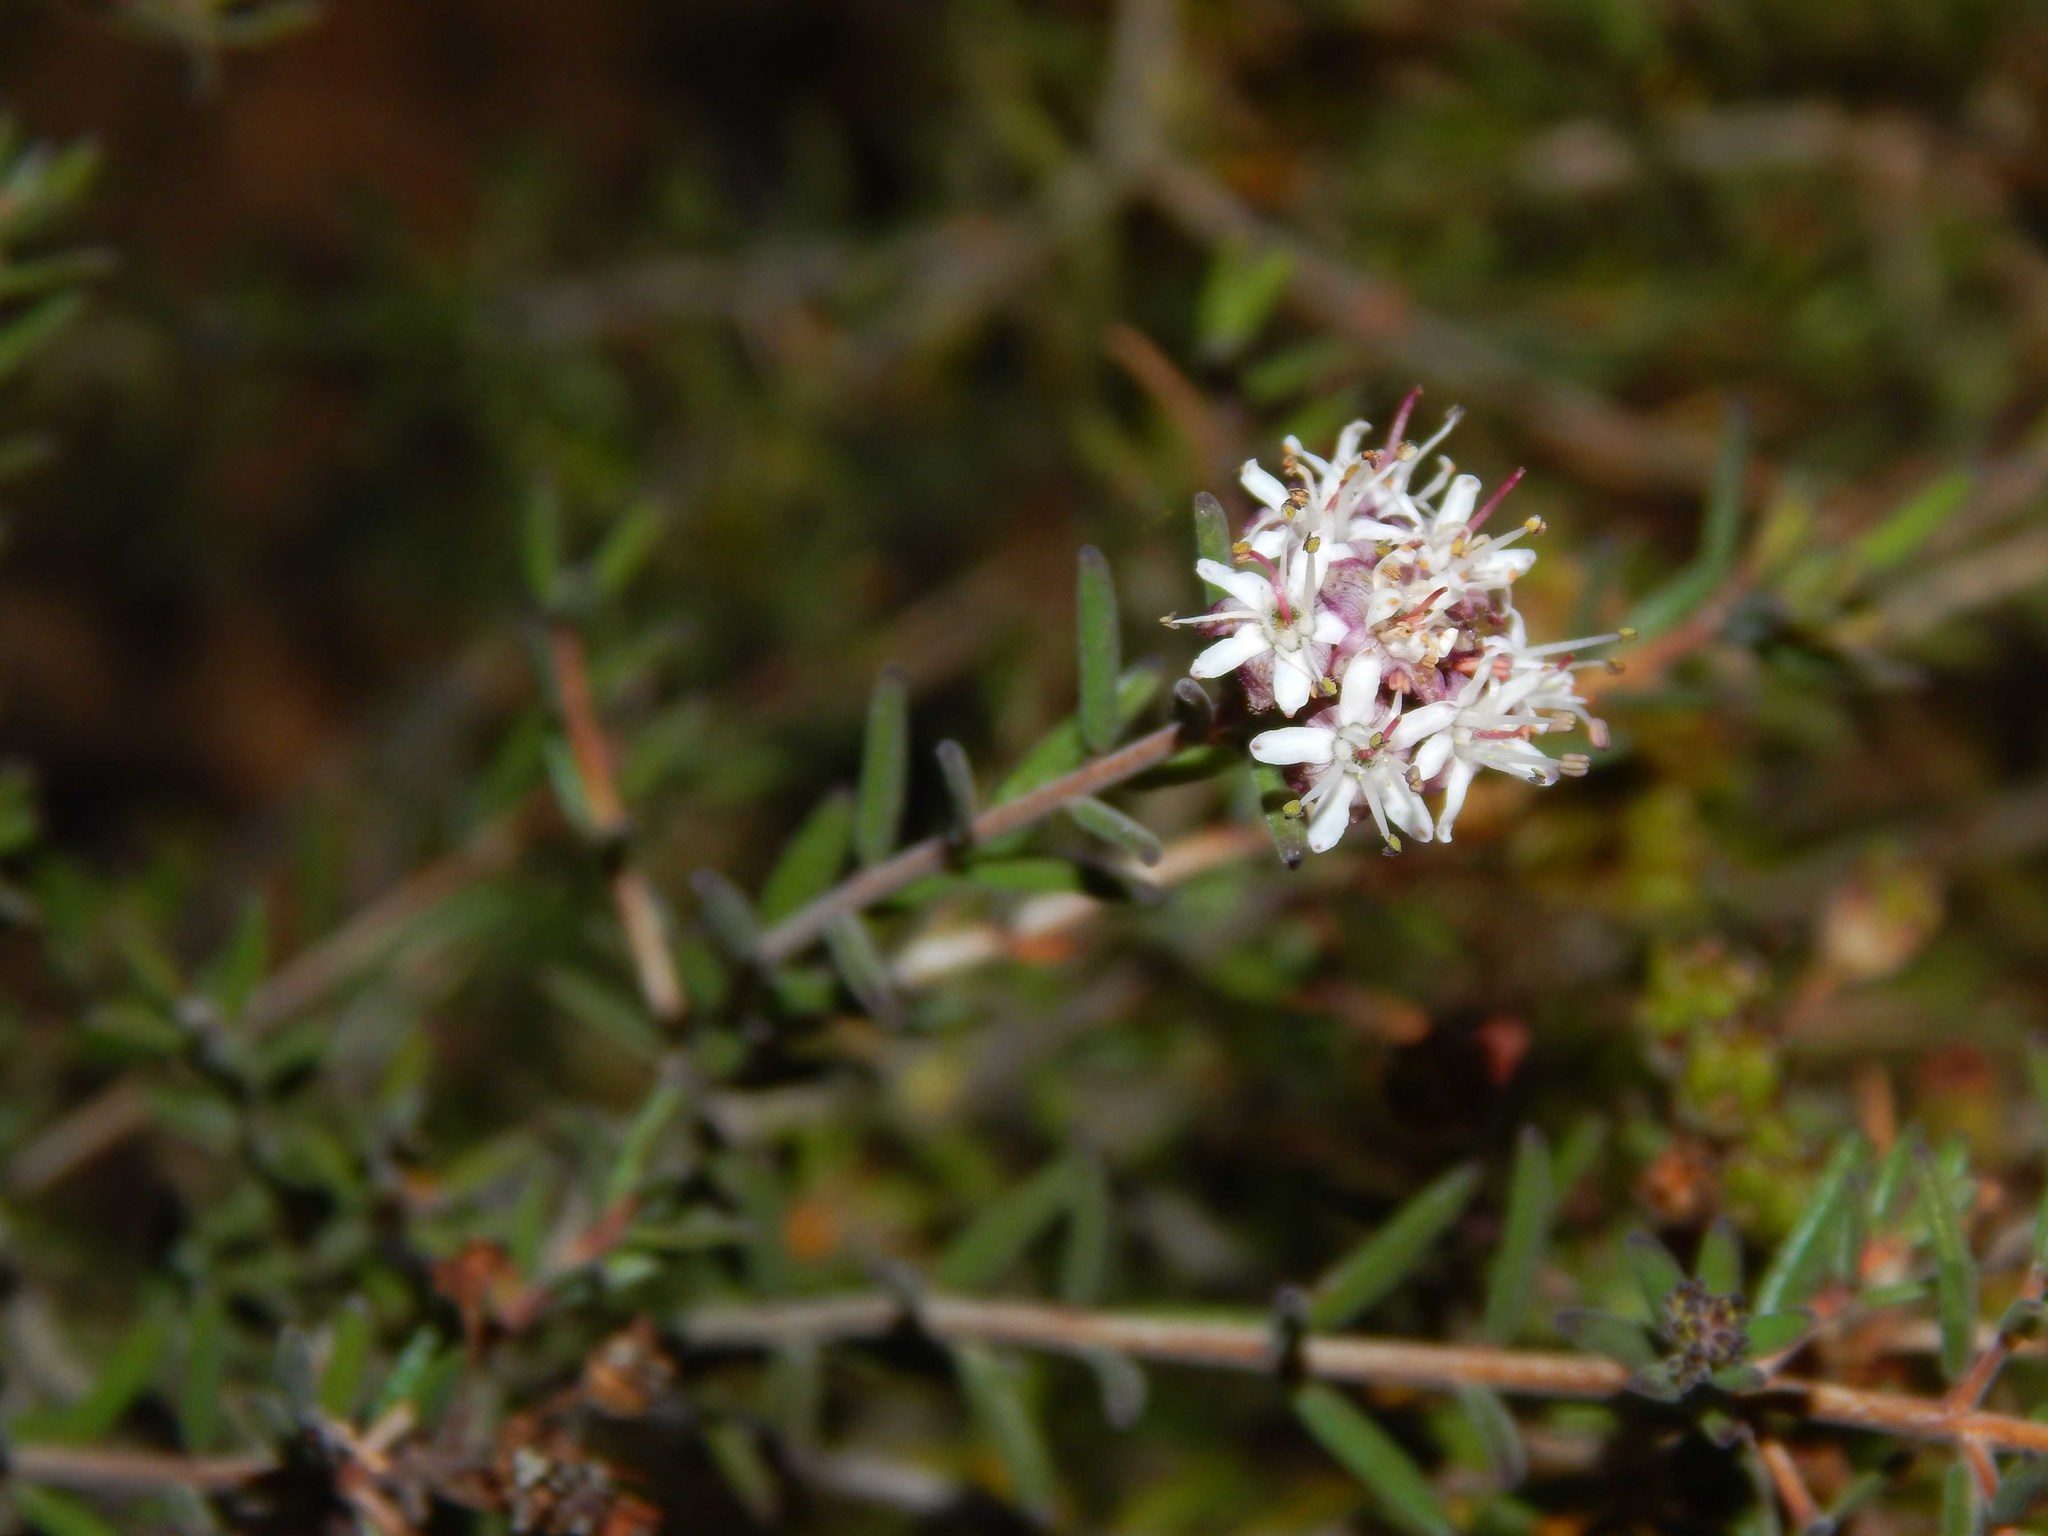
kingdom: Plantae
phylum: Tracheophyta
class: Magnoliopsida
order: Sapindales
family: Rutaceae
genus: Agathosma
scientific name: Agathosma foetidissima
